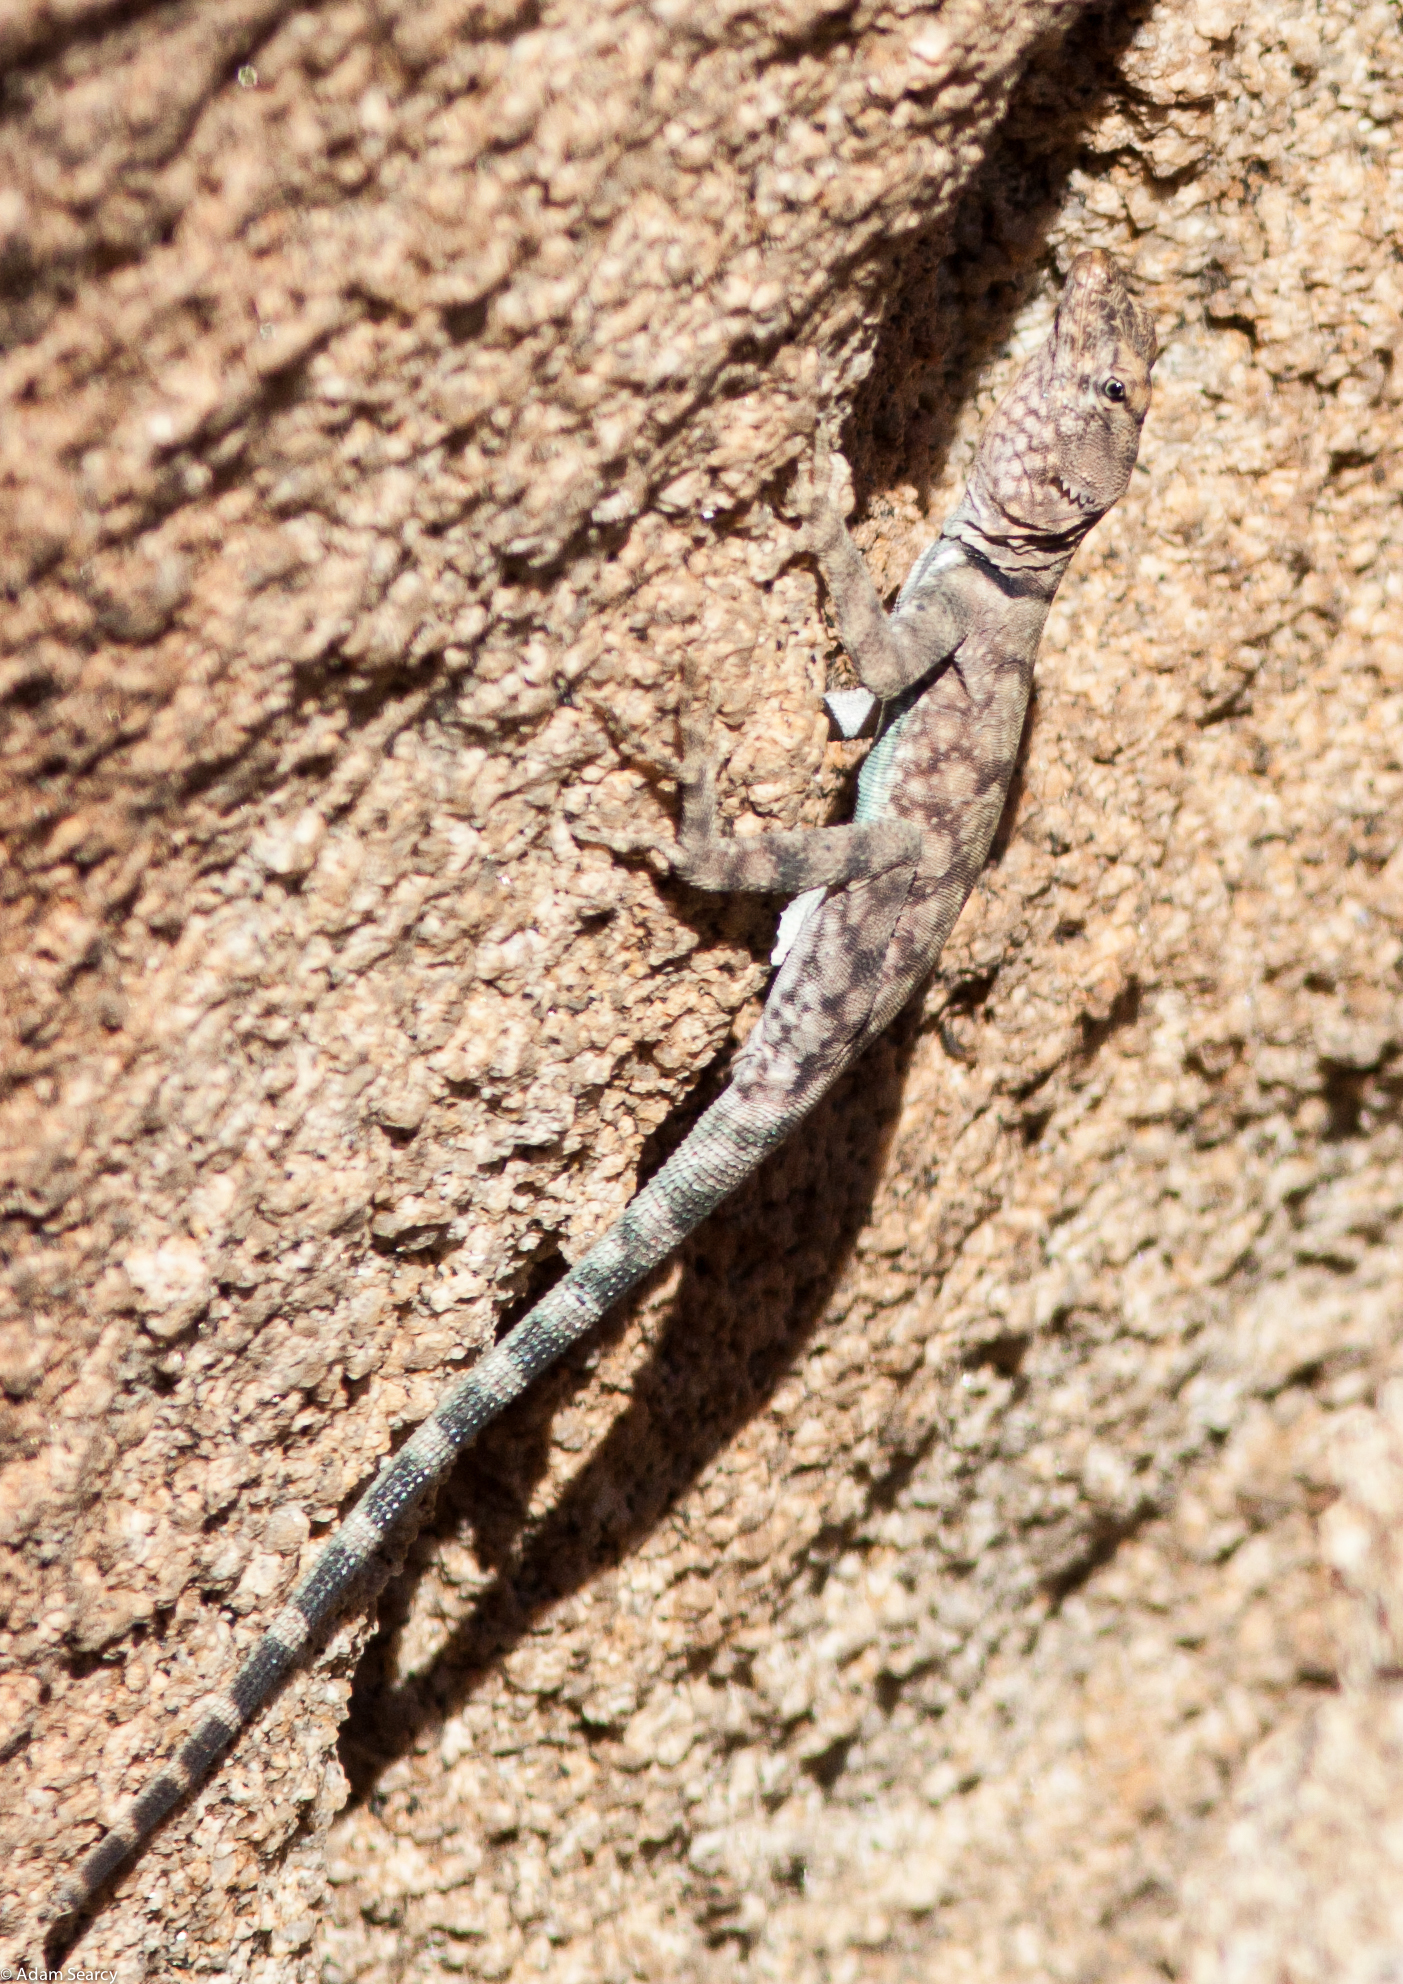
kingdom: Animalia
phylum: Chordata
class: Squamata
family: Phrynosomatidae
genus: Petrosaurus
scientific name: Petrosaurus mearnsi
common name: Banded rock lizard
